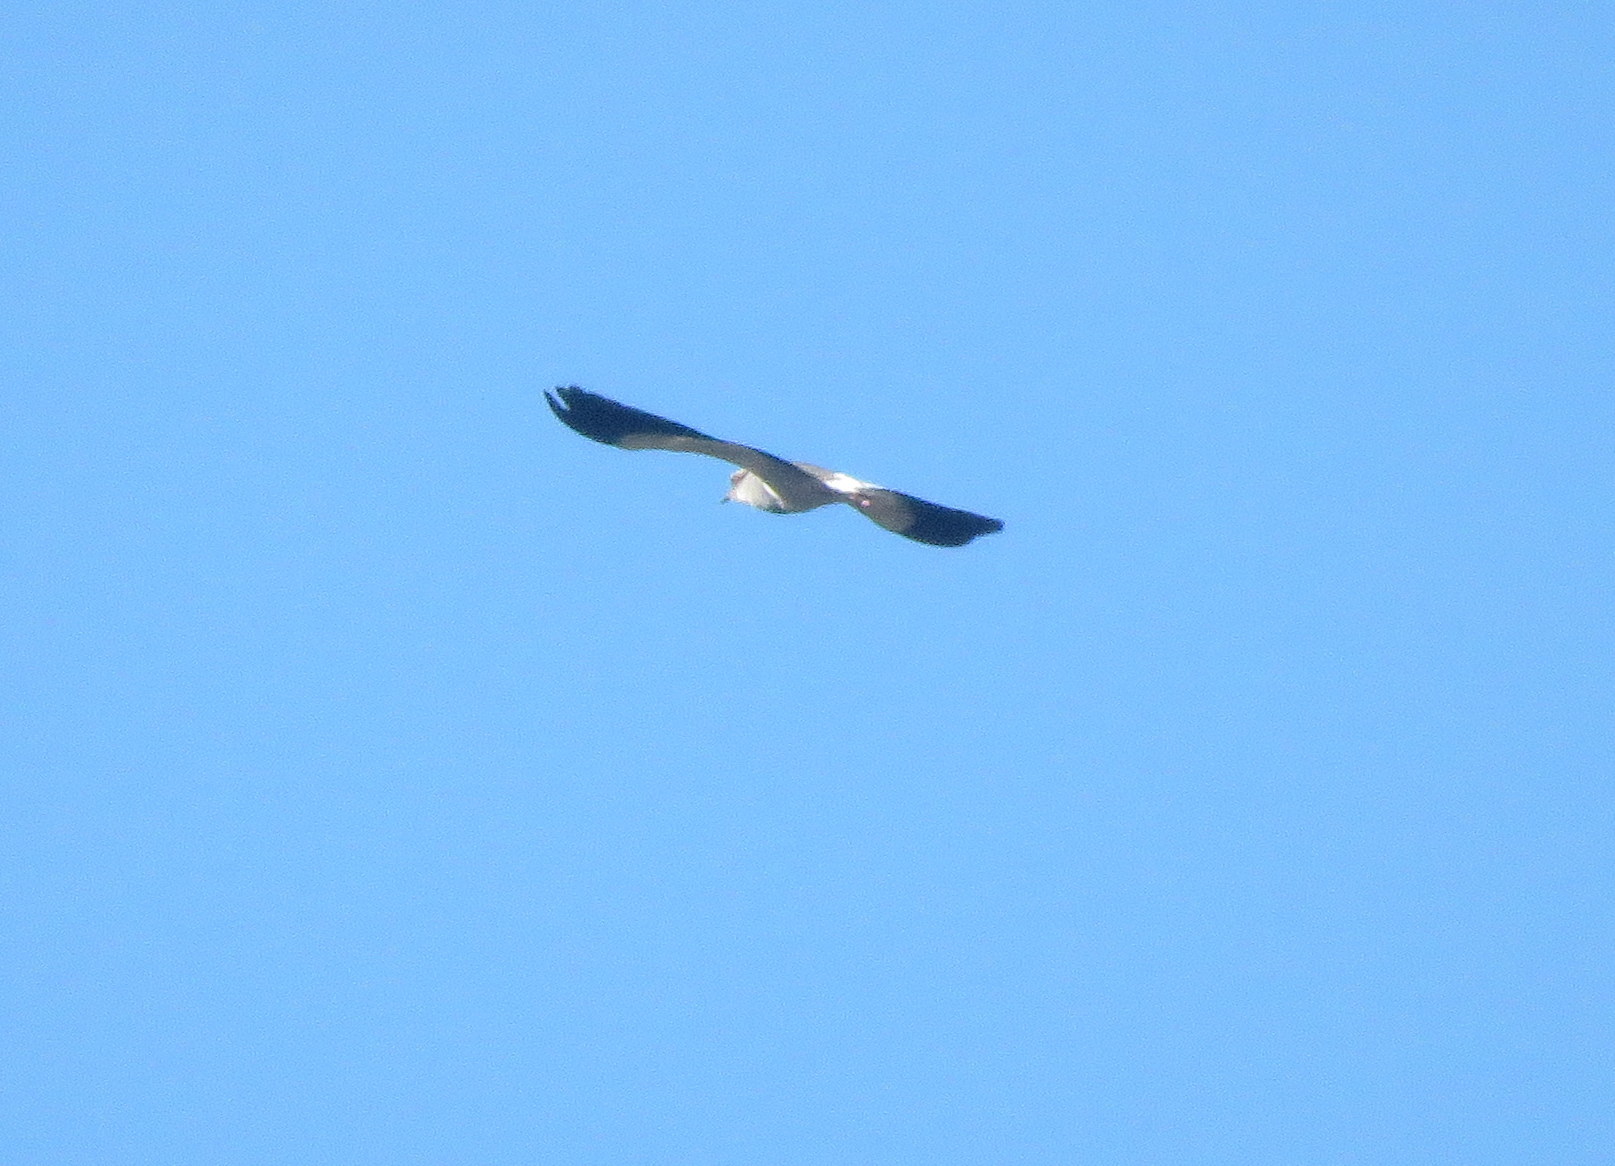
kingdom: Animalia
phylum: Chordata
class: Aves
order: Charadriiformes
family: Charadriidae
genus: Vanellus
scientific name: Vanellus resplendens
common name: Andean lapwing
